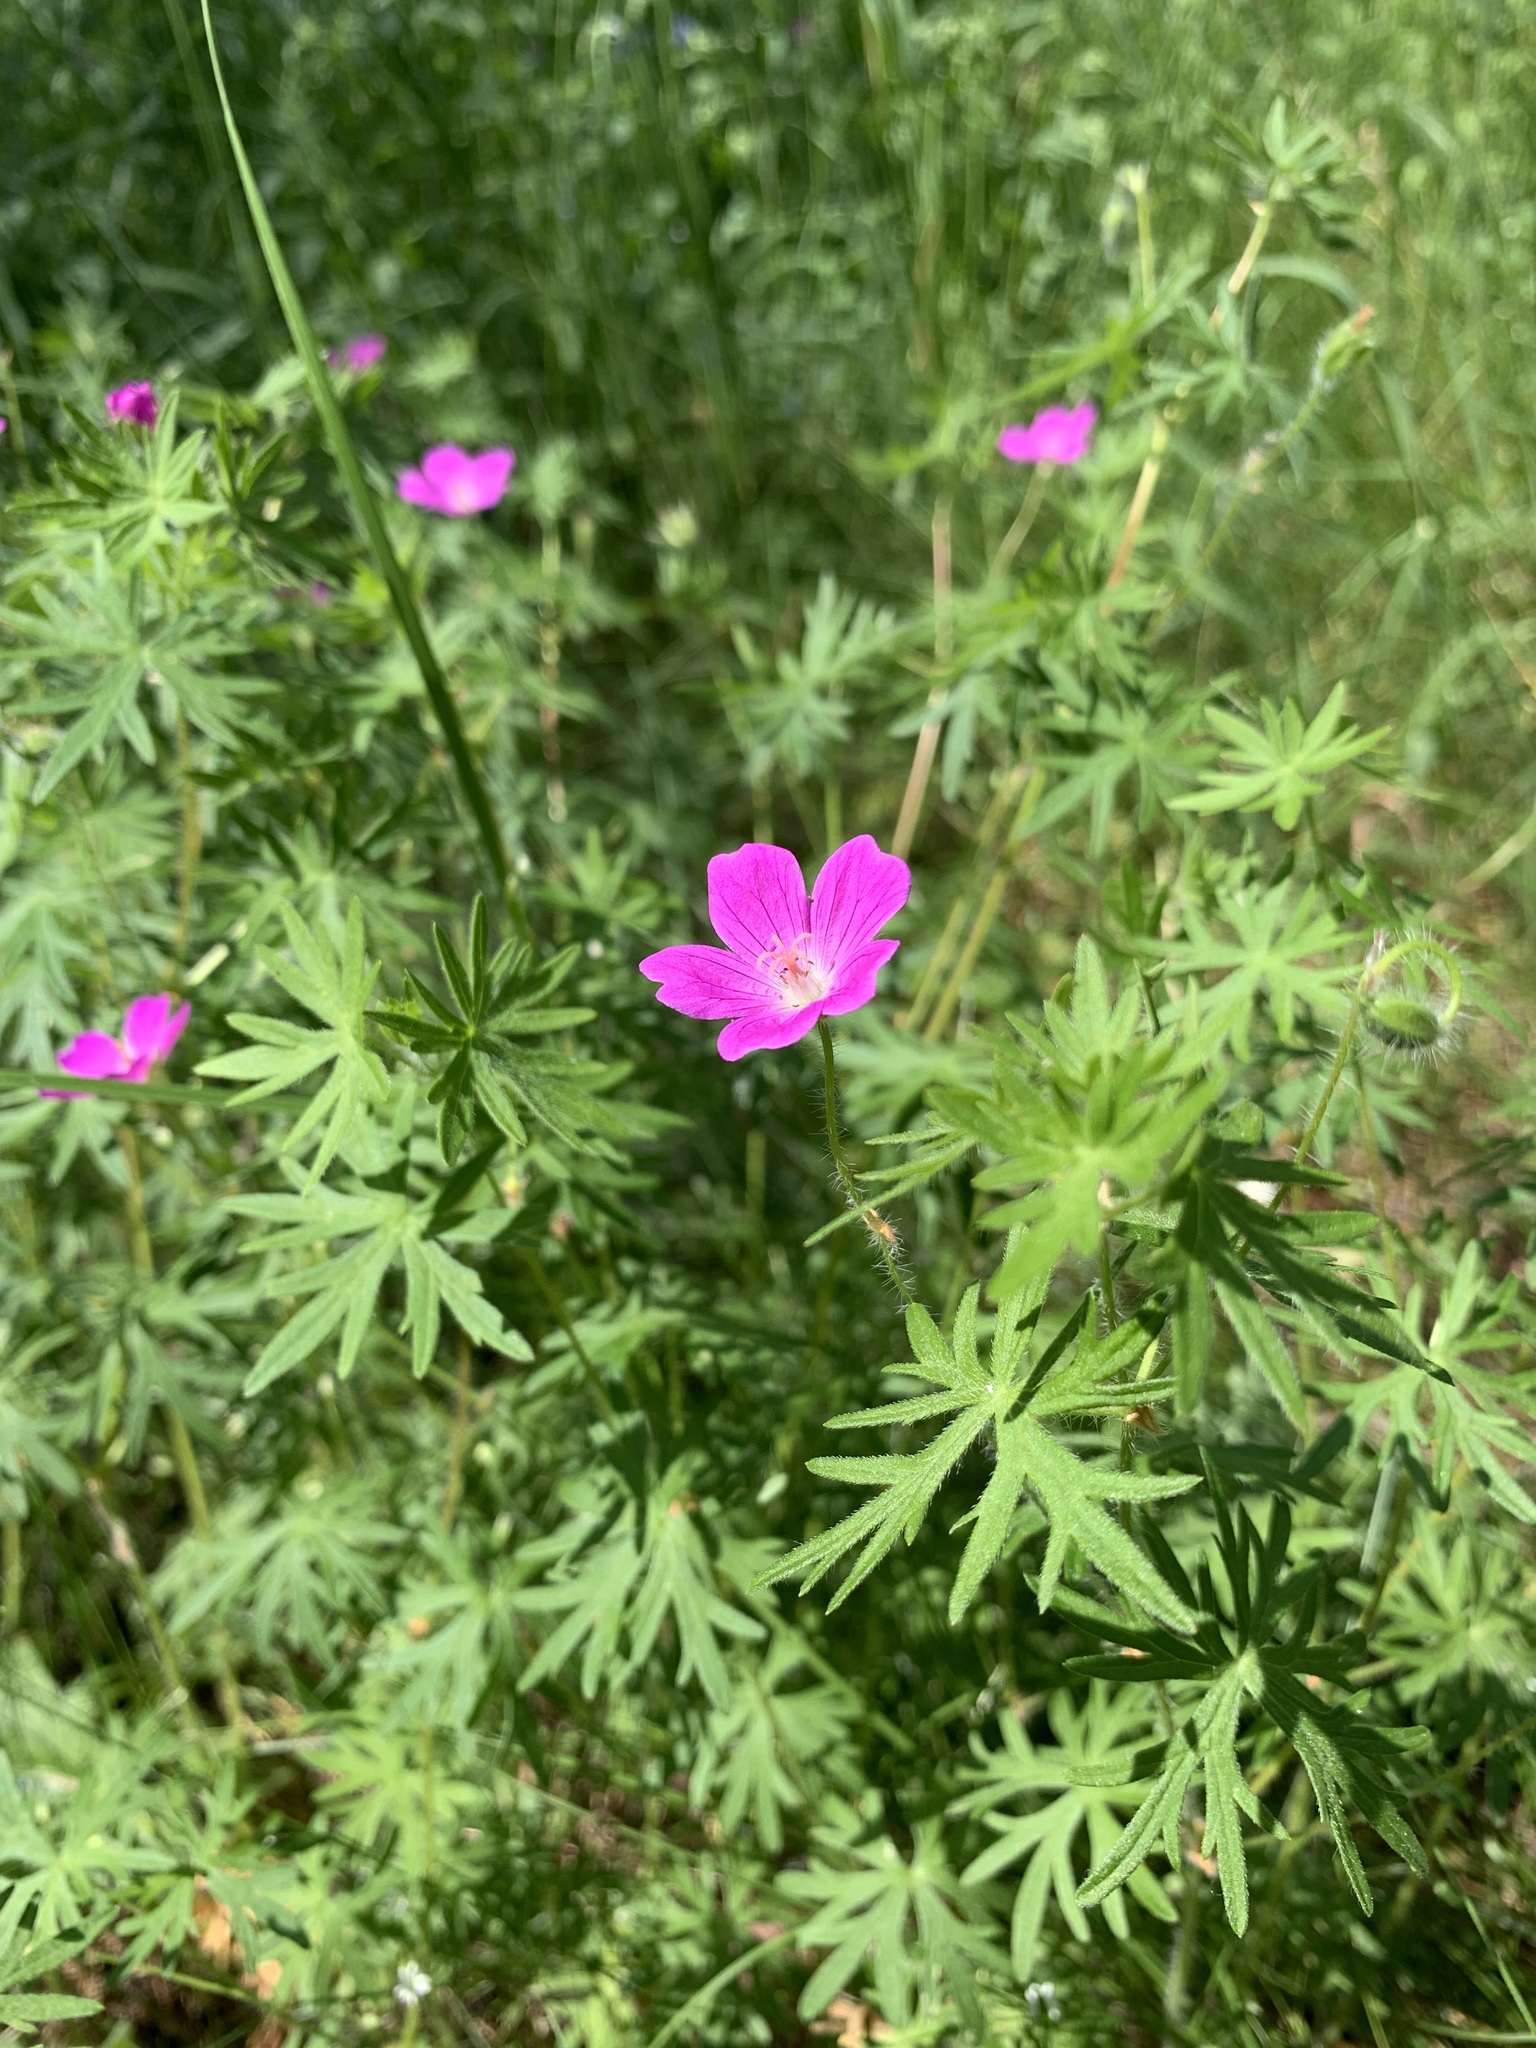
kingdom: Plantae
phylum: Tracheophyta
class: Magnoliopsida
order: Geraniales
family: Geraniaceae
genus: Geranium
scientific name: Geranium sanguineum
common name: Bloody crane's-bill
